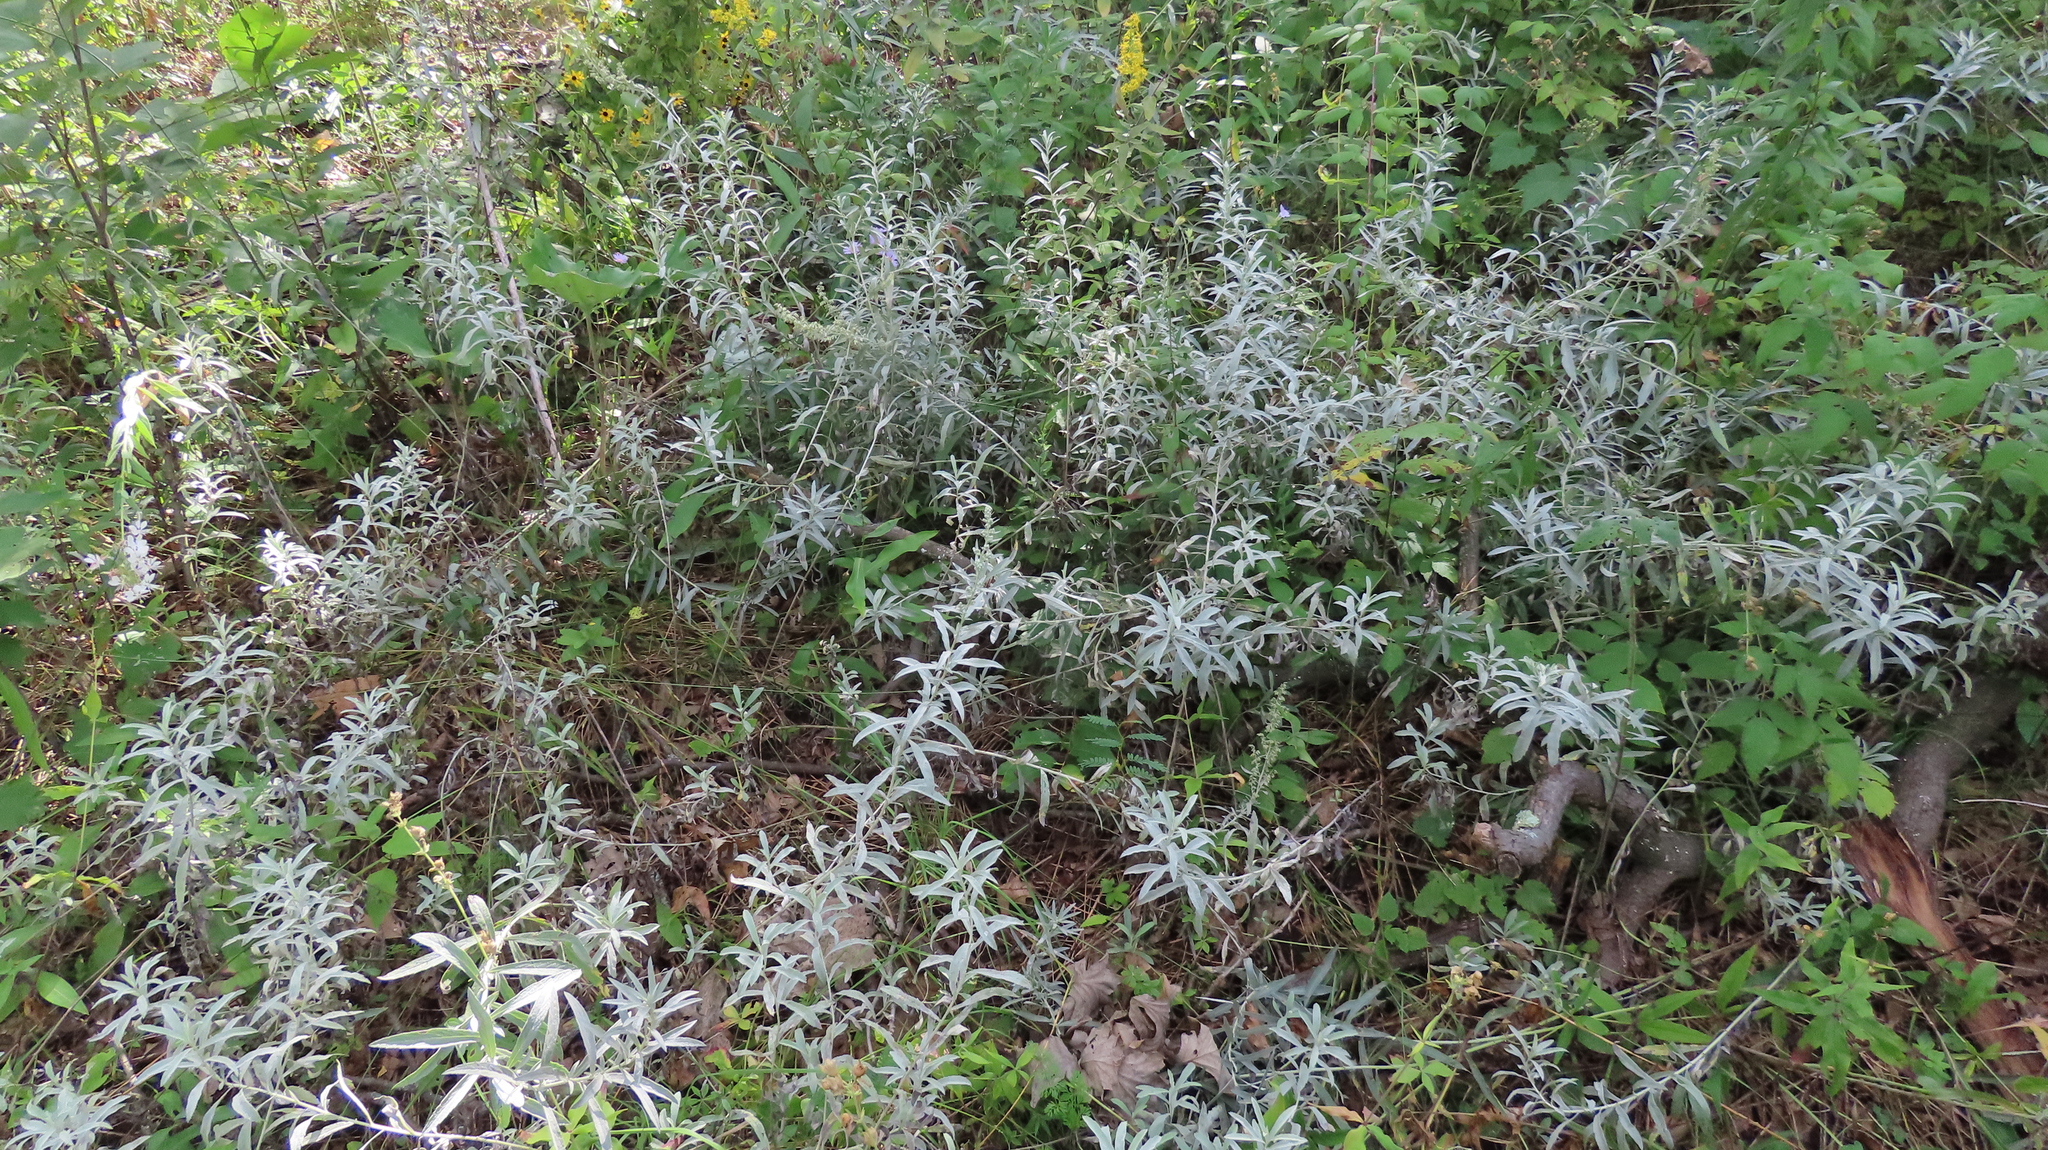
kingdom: Plantae
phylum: Tracheophyta
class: Magnoliopsida
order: Asterales
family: Asteraceae
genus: Artemisia
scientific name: Artemisia ludoviciana
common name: Western mugwort
